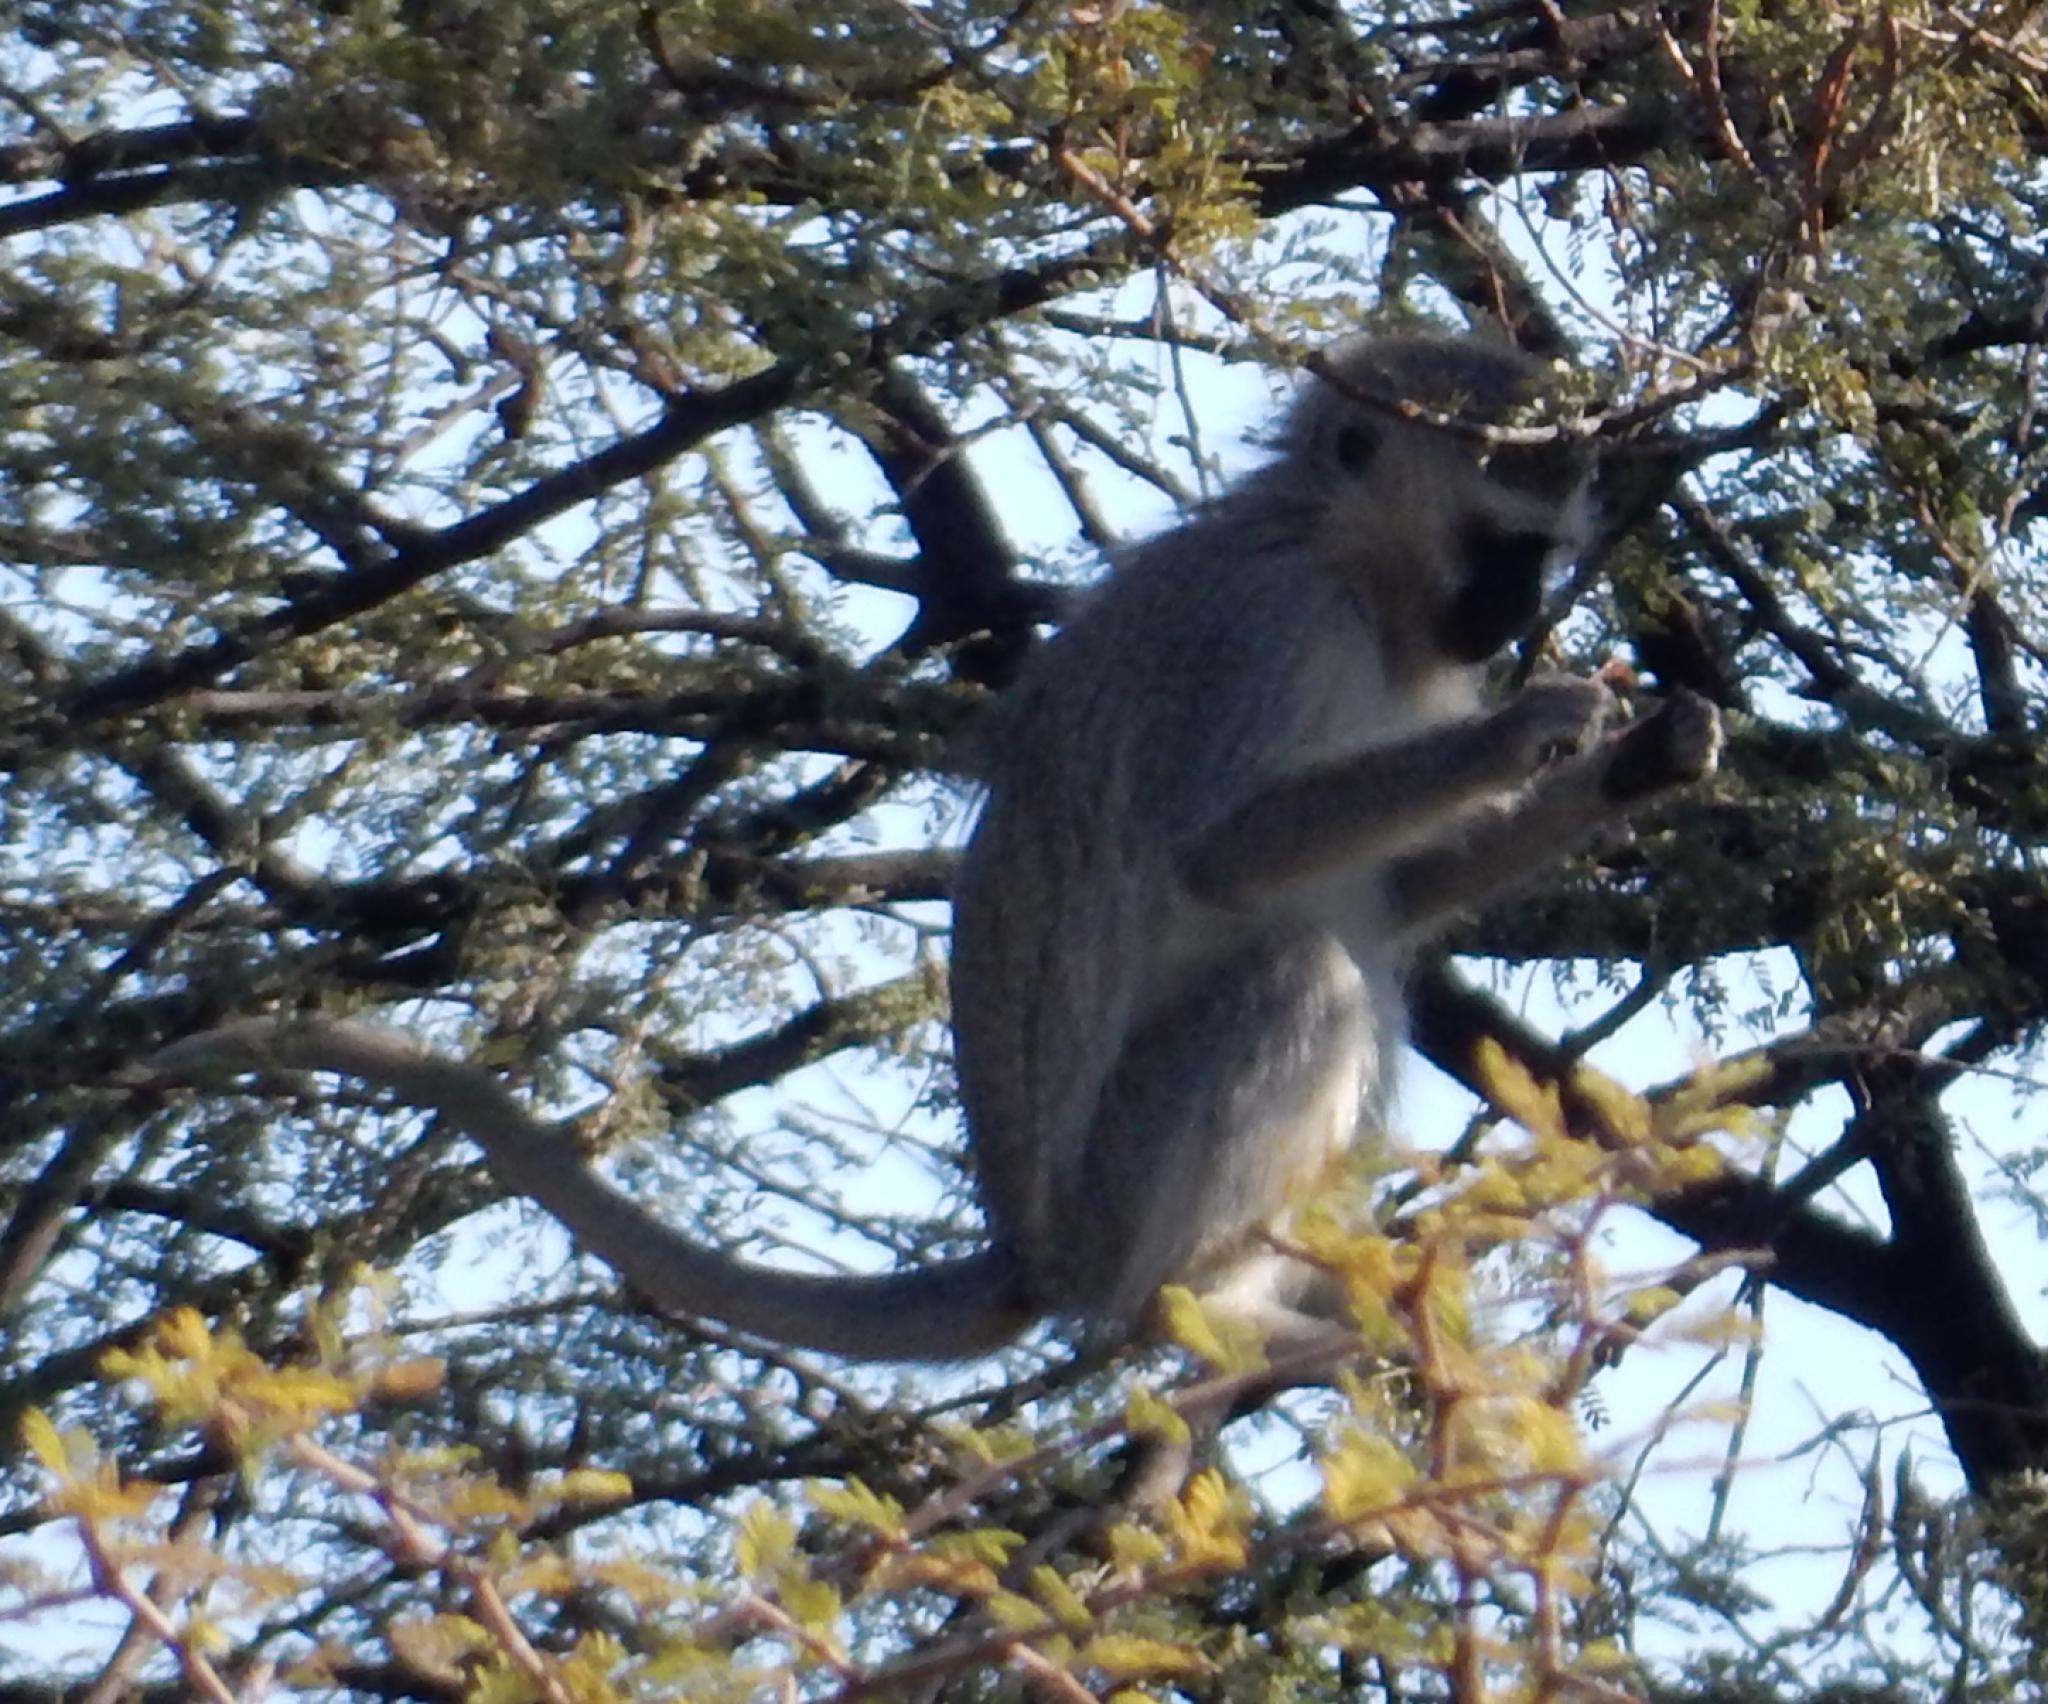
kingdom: Animalia
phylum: Chordata
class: Mammalia
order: Primates
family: Cercopithecidae
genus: Chlorocebus
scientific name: Chlorocebus pygerythrus
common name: Vervet monkey
